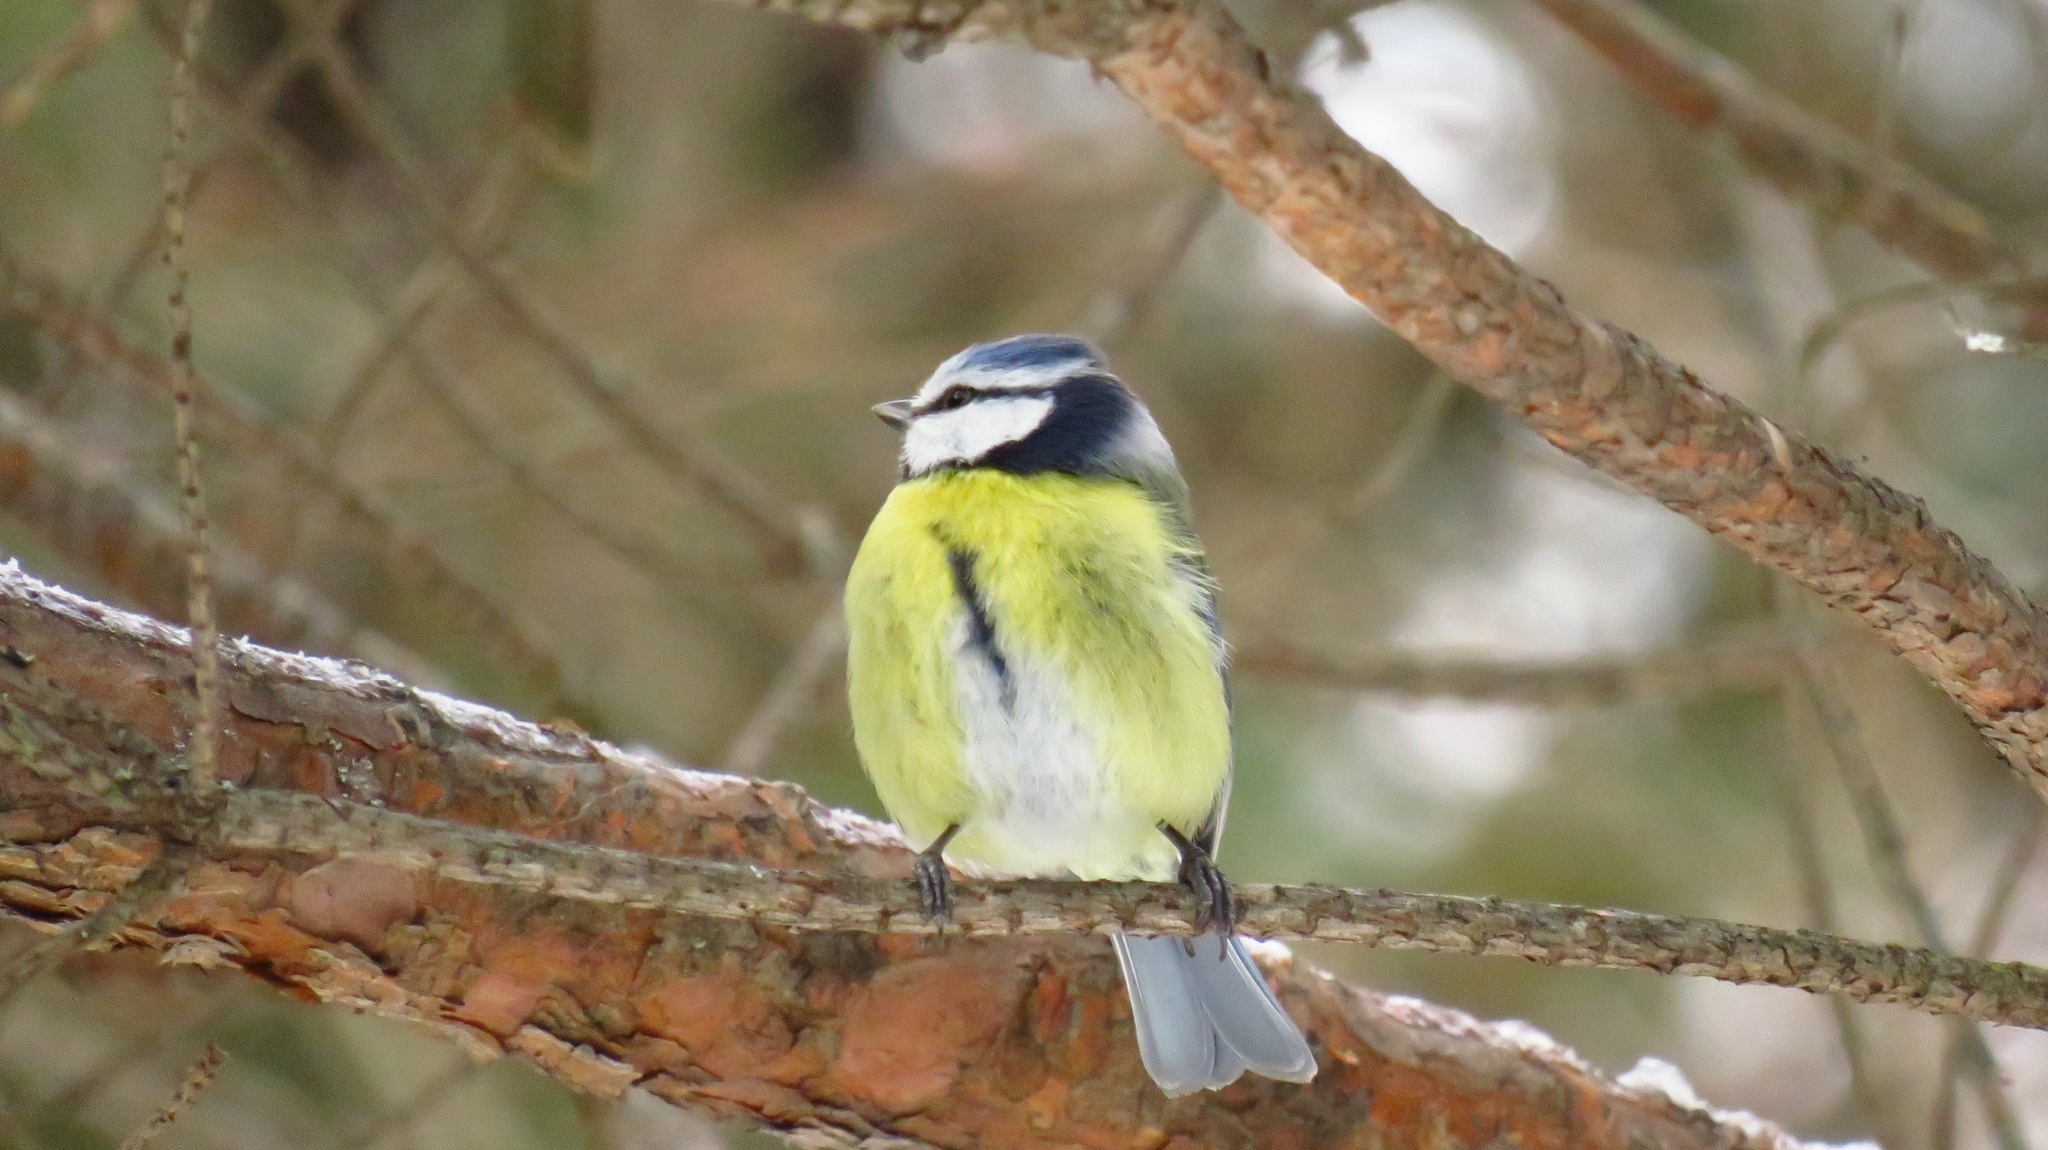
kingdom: Animalia
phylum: Chordata
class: Aves
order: Passeriformes
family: Paridae
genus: Cyanistes
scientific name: Cyanistes caeruleus
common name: Eurasian blue tit
